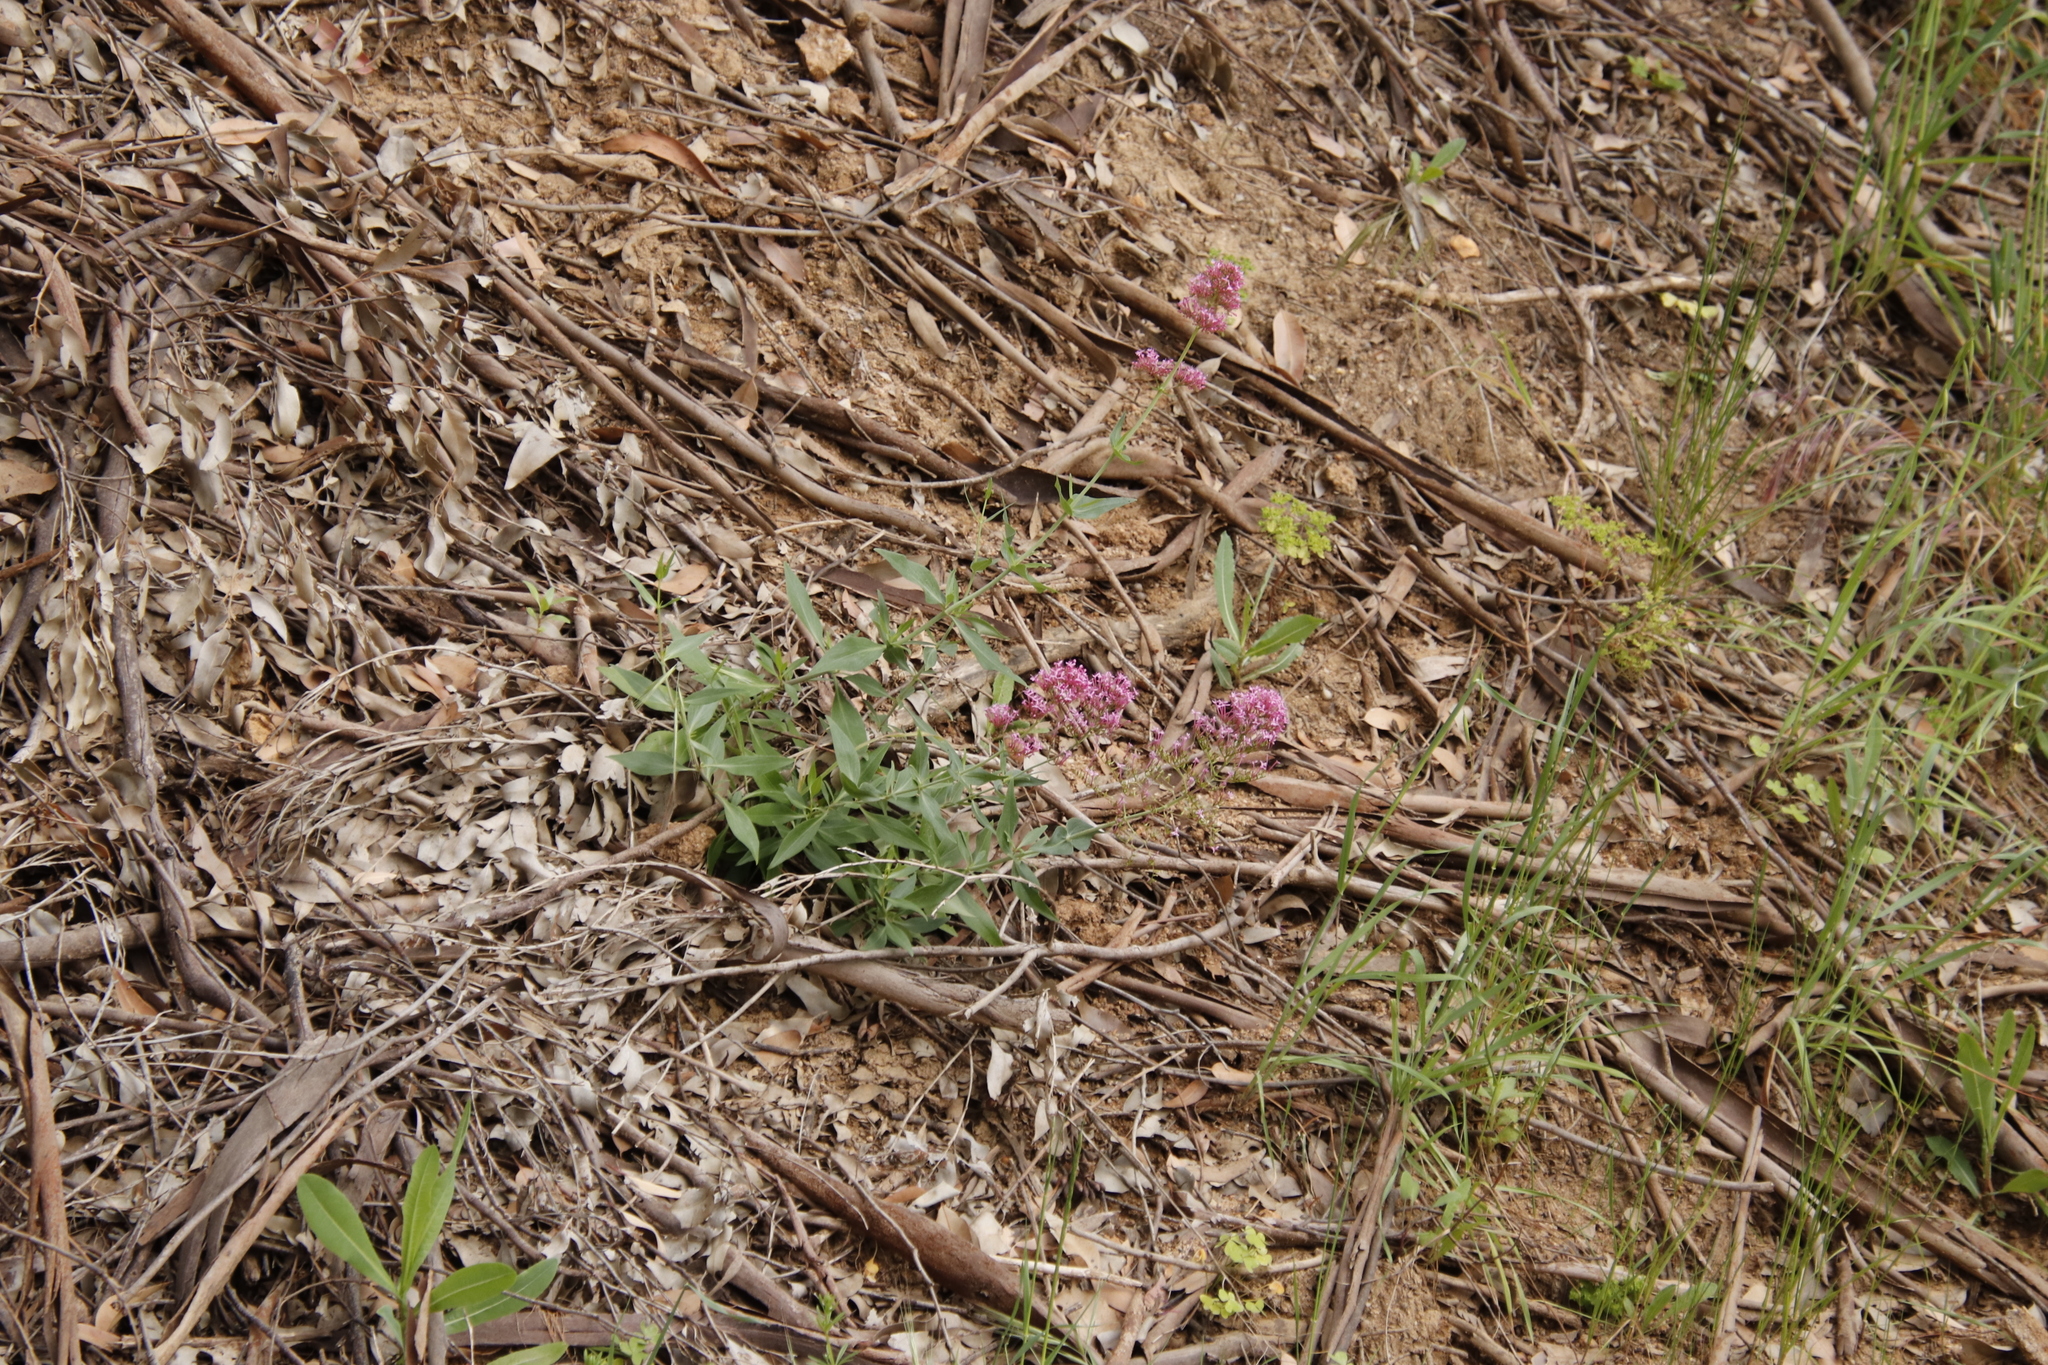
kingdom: Plantae
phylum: Tracheophyta
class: Magnoliopsida
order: Dipsacales
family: Caprifoliaceae
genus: Centranthus
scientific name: Centranthus ruber
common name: Red valerian
